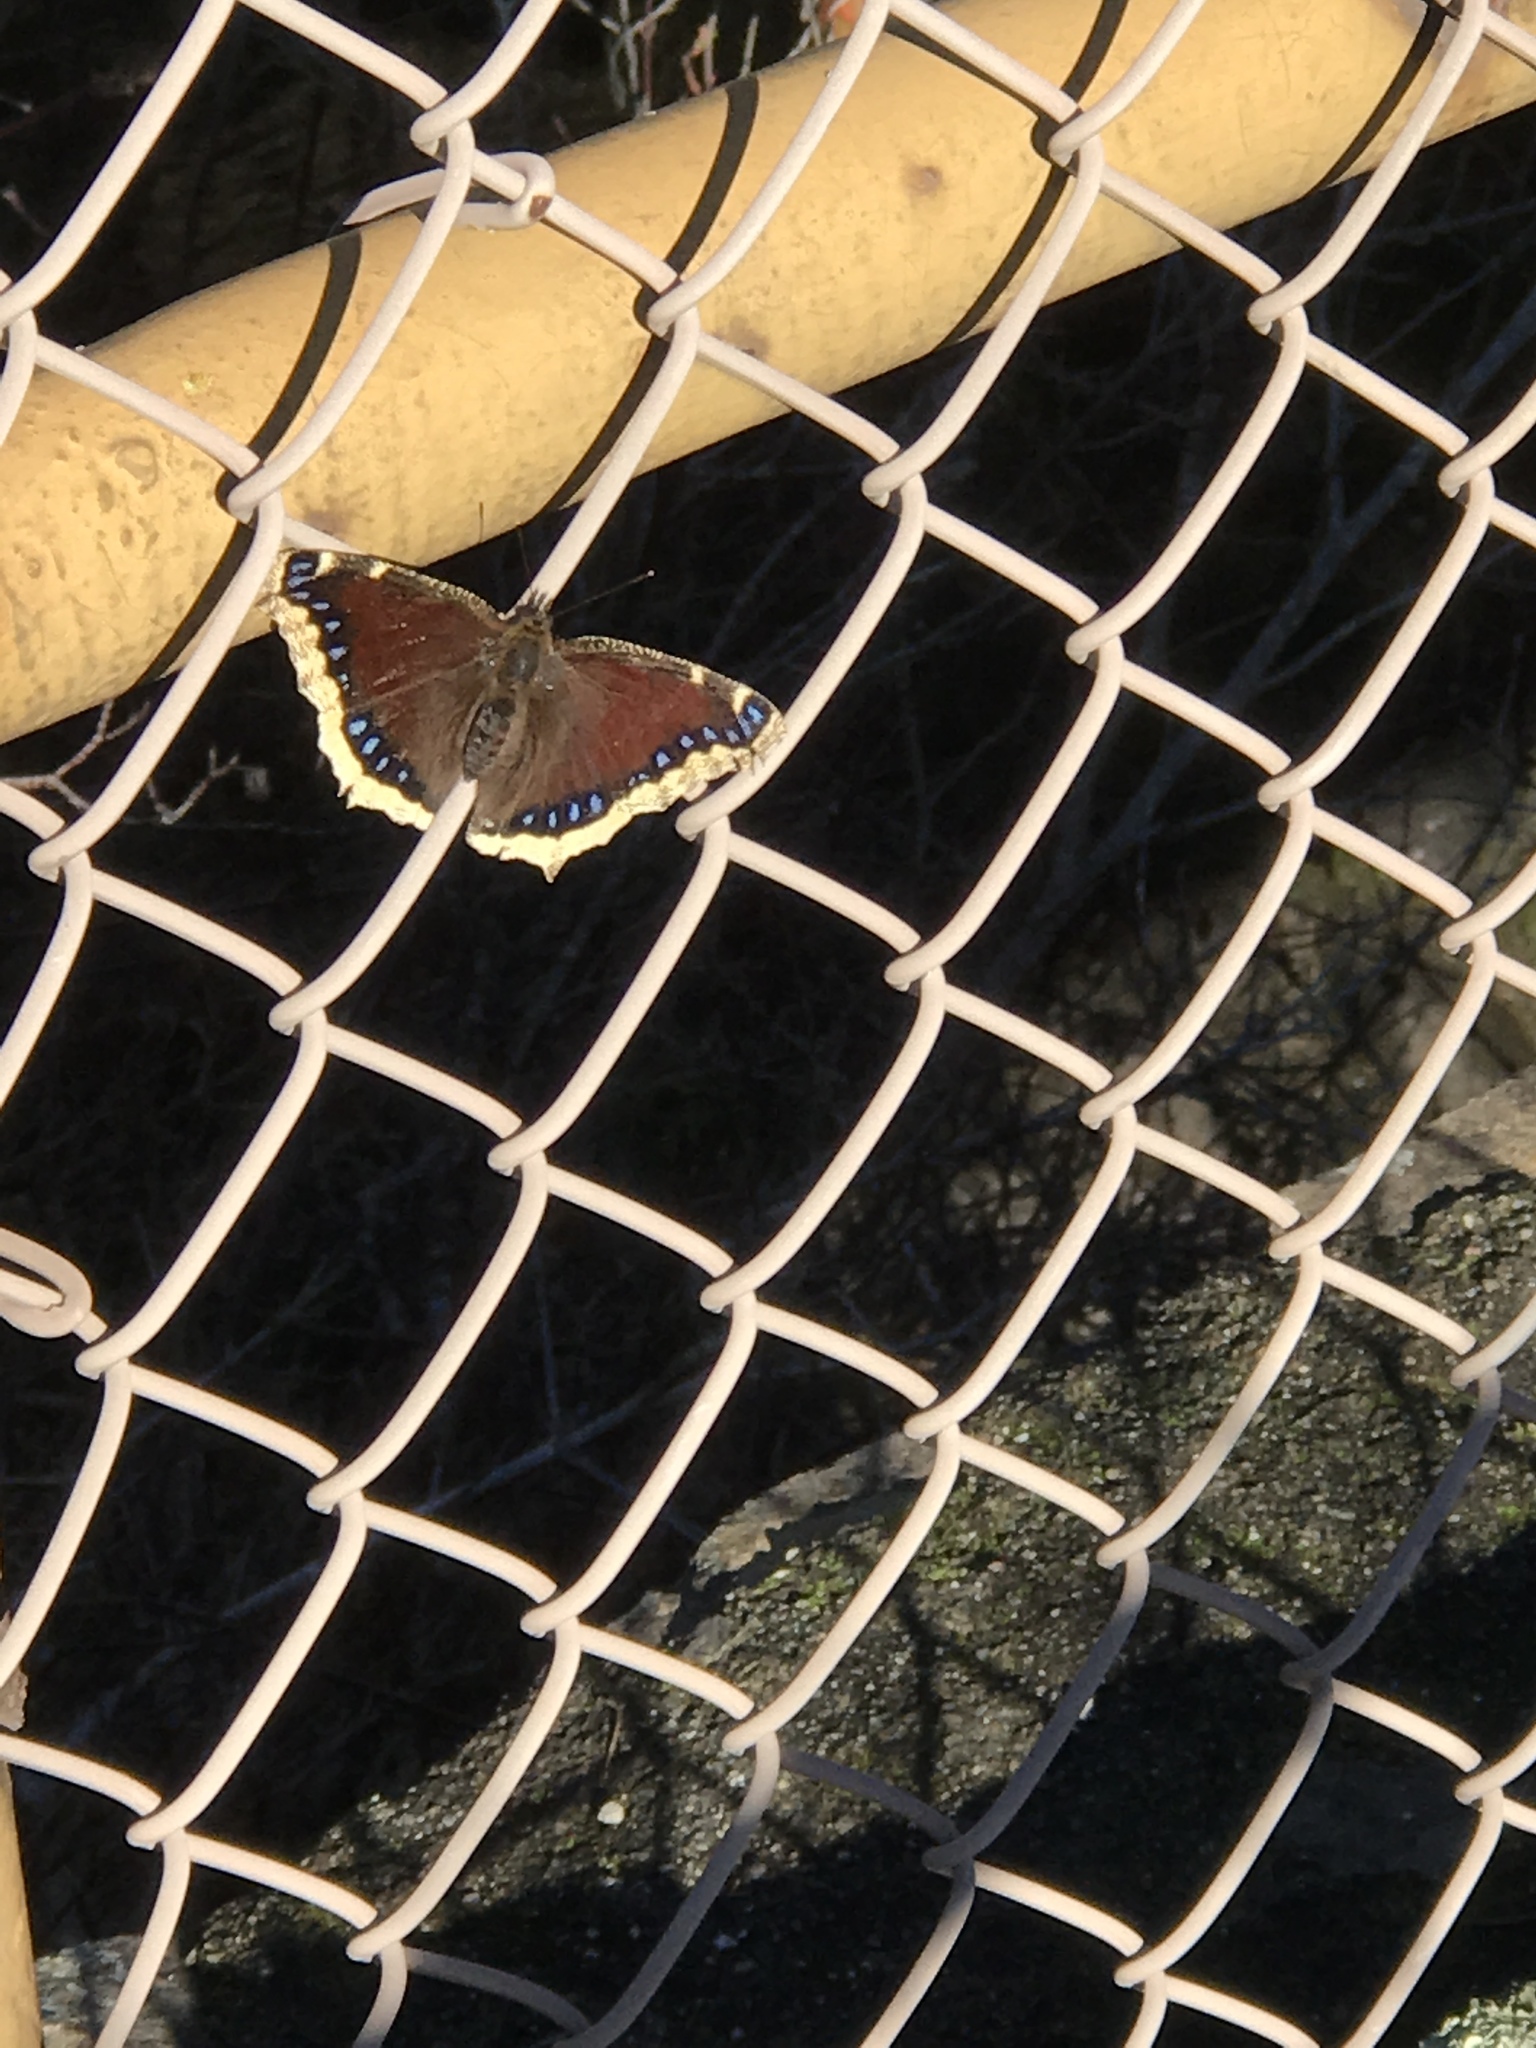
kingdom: Animalia
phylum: Arthropoda
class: Insecta
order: Lepidoptera
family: Nymphalidae
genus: Nymphalis
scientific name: Nymphalis antiopa
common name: Camberwell beauty
